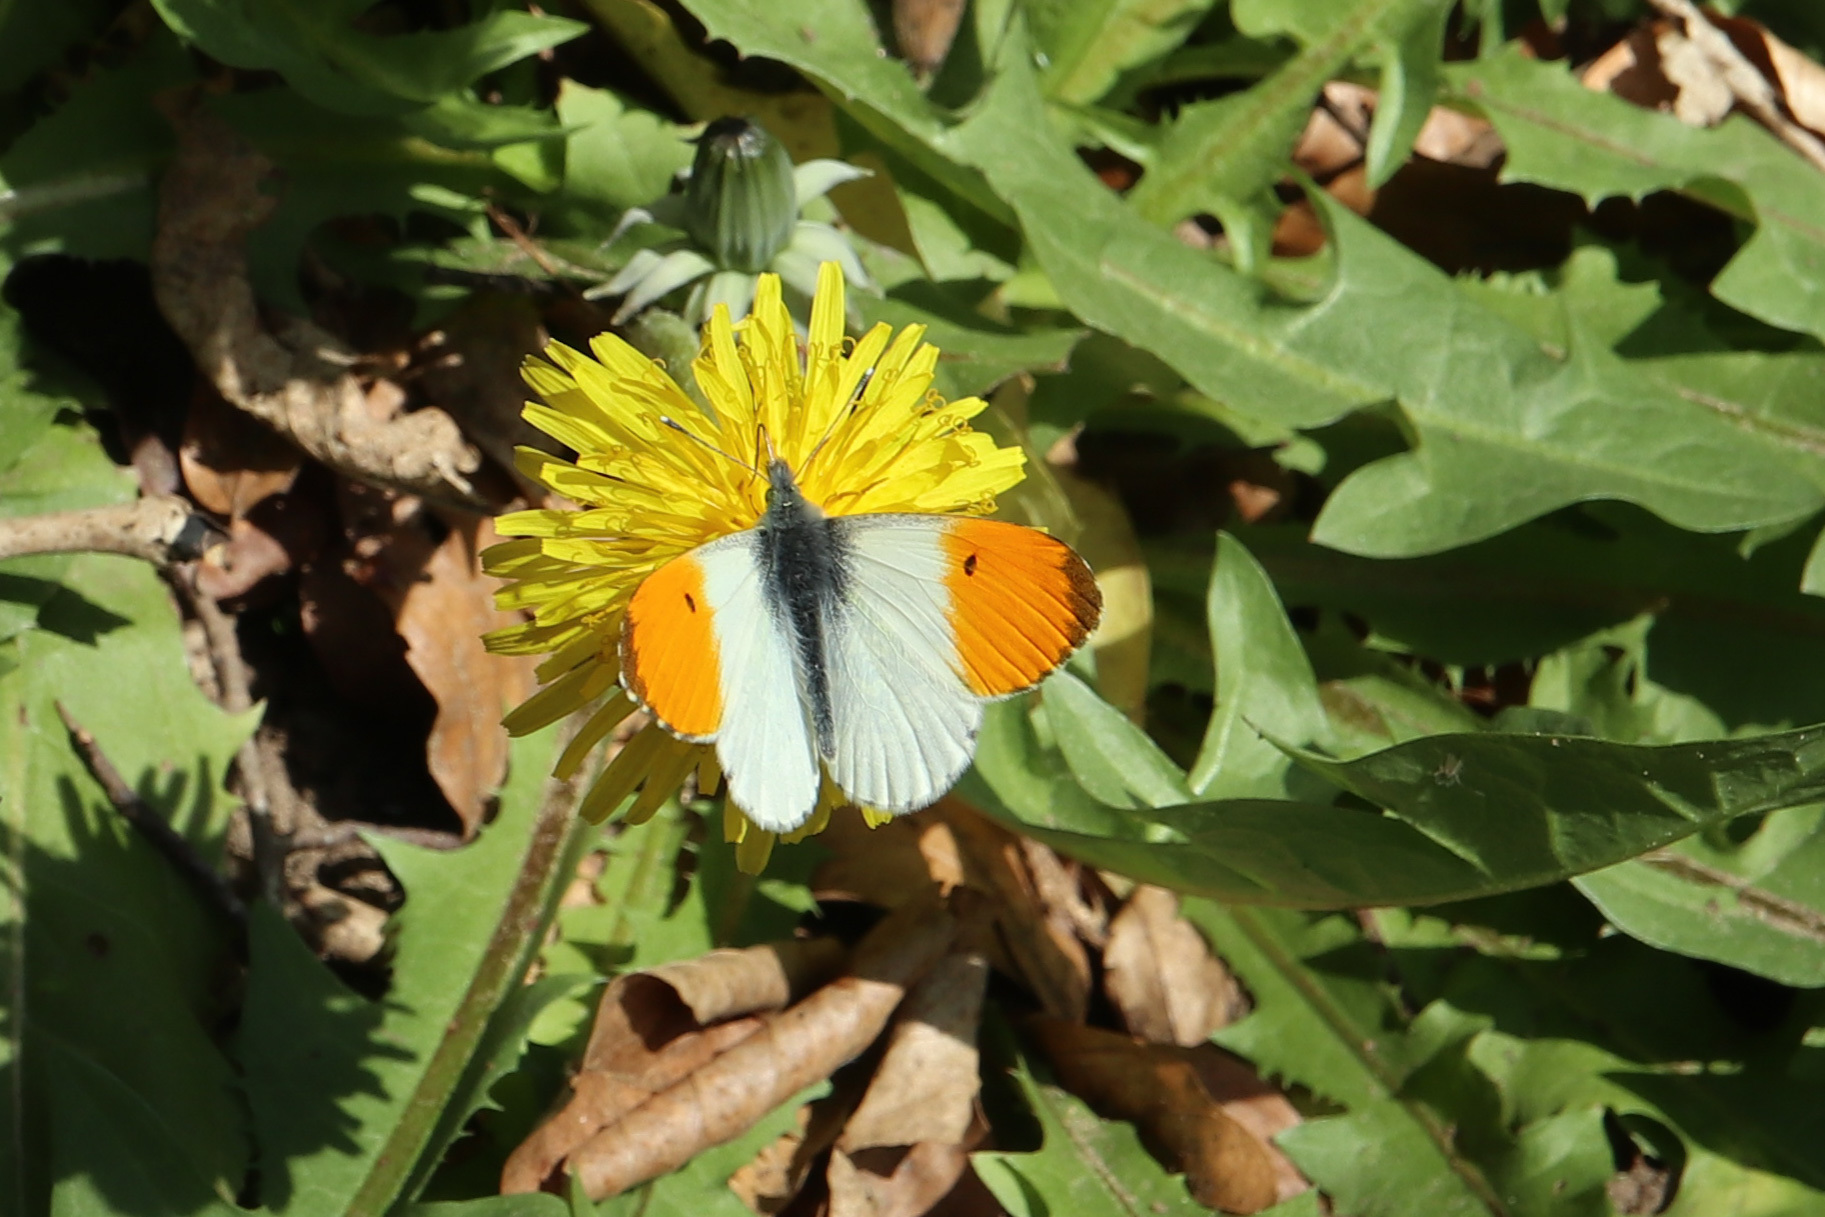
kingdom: Animalia
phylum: Arthropoda
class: Insecta
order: Lepidoptera
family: Pieridae
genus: Anthocharis
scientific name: Anthocharis cardamines
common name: Orange-tip
